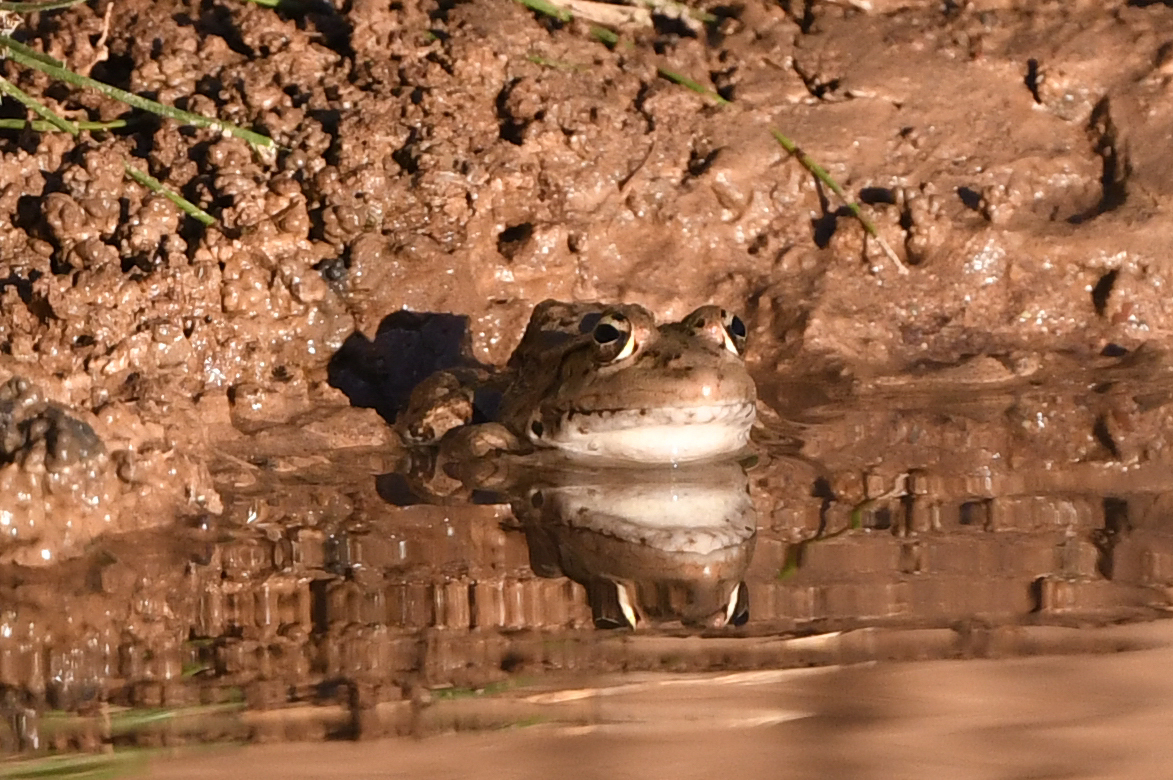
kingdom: Animalia
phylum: Chordata
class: Amphibia
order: Anura
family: Ranidae
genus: Pelophylax
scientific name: Pelophylax saharicus
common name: Sahara frog
